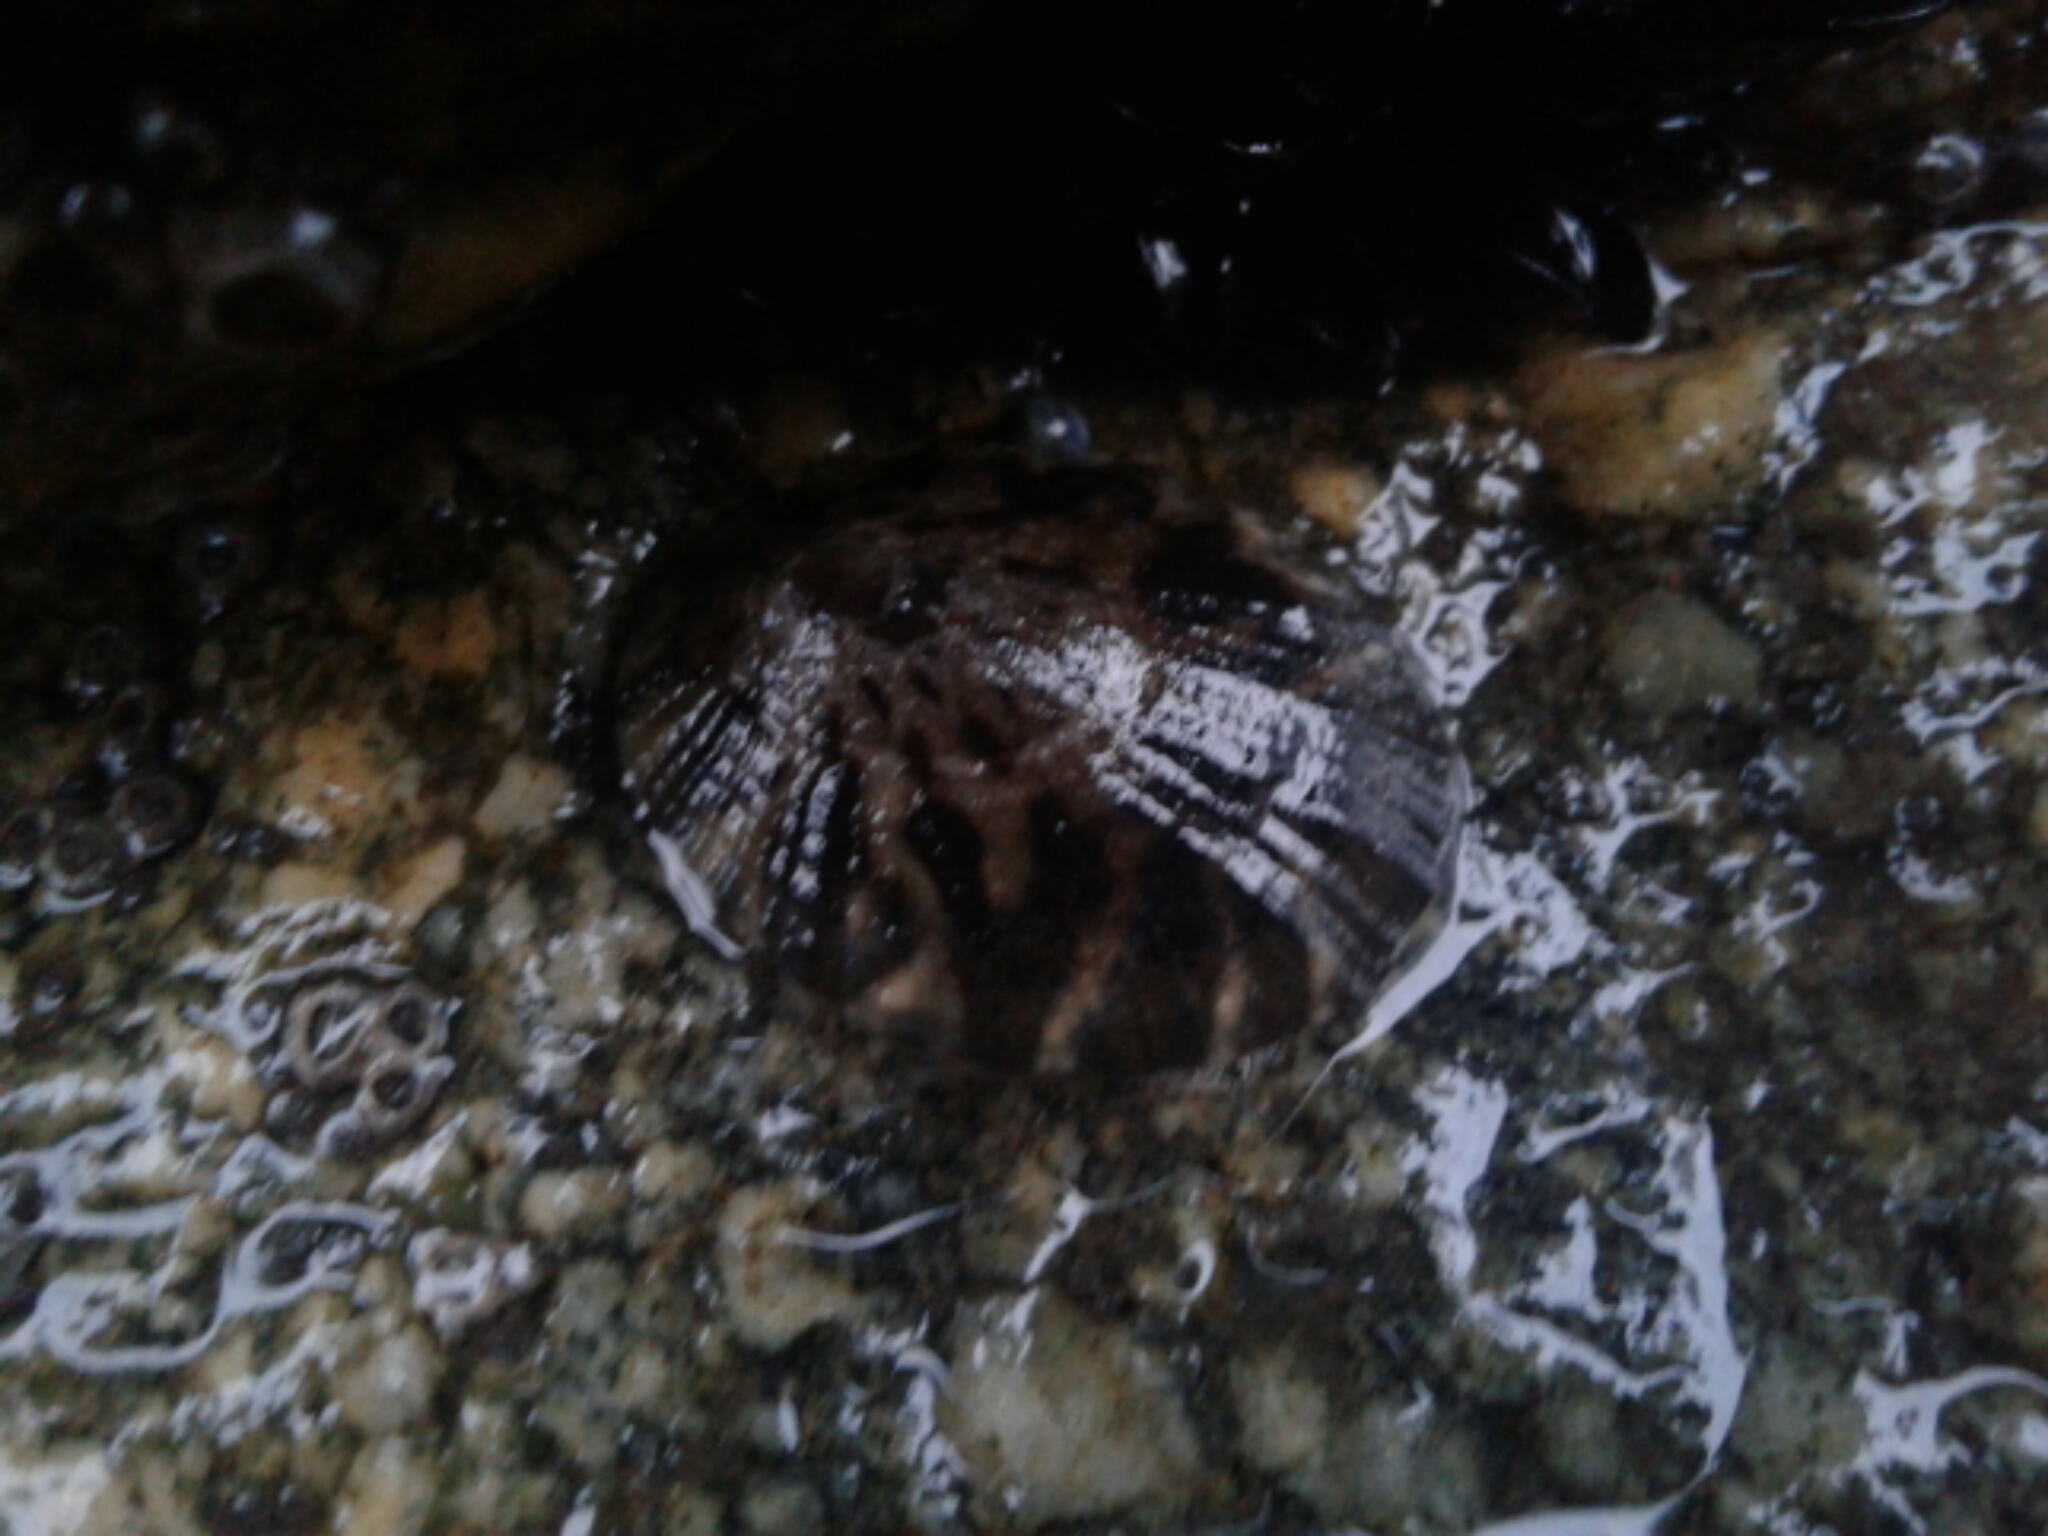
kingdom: Animalia
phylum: Mollusca
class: Gastropoda
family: Nacellidae
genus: Cellana
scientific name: Cellana radians
